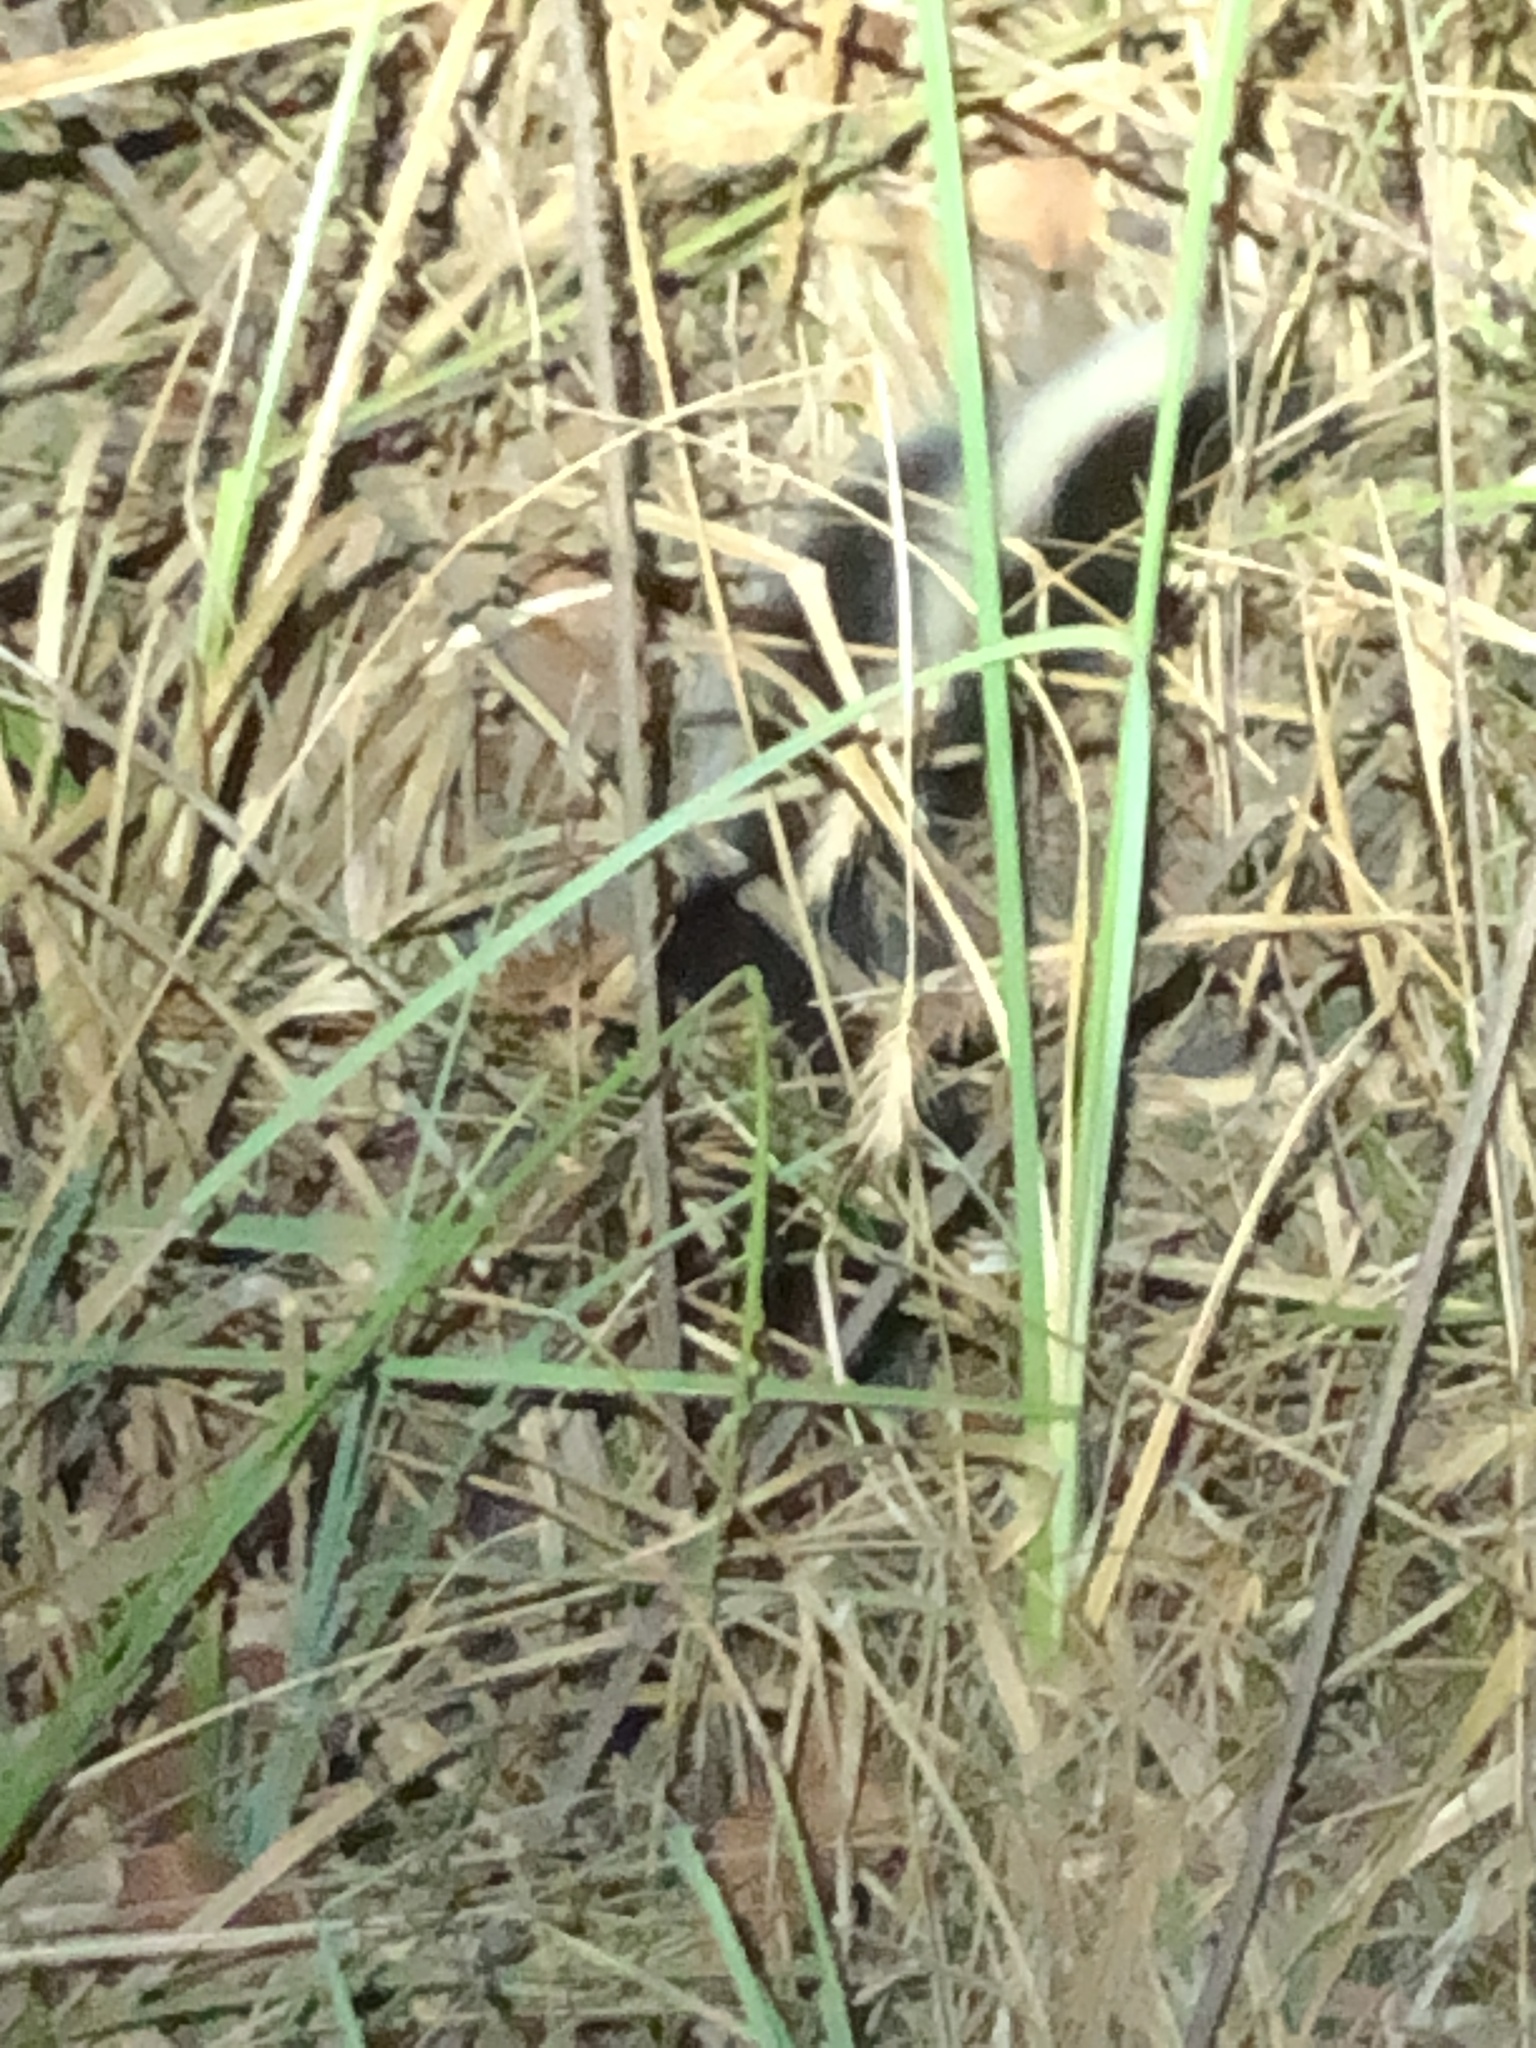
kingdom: Animalia
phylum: Chordata
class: Mammalia
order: Carnivora
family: Mephitidae
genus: Mephitis
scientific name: Mephitis mephitis
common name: Striped skunk
